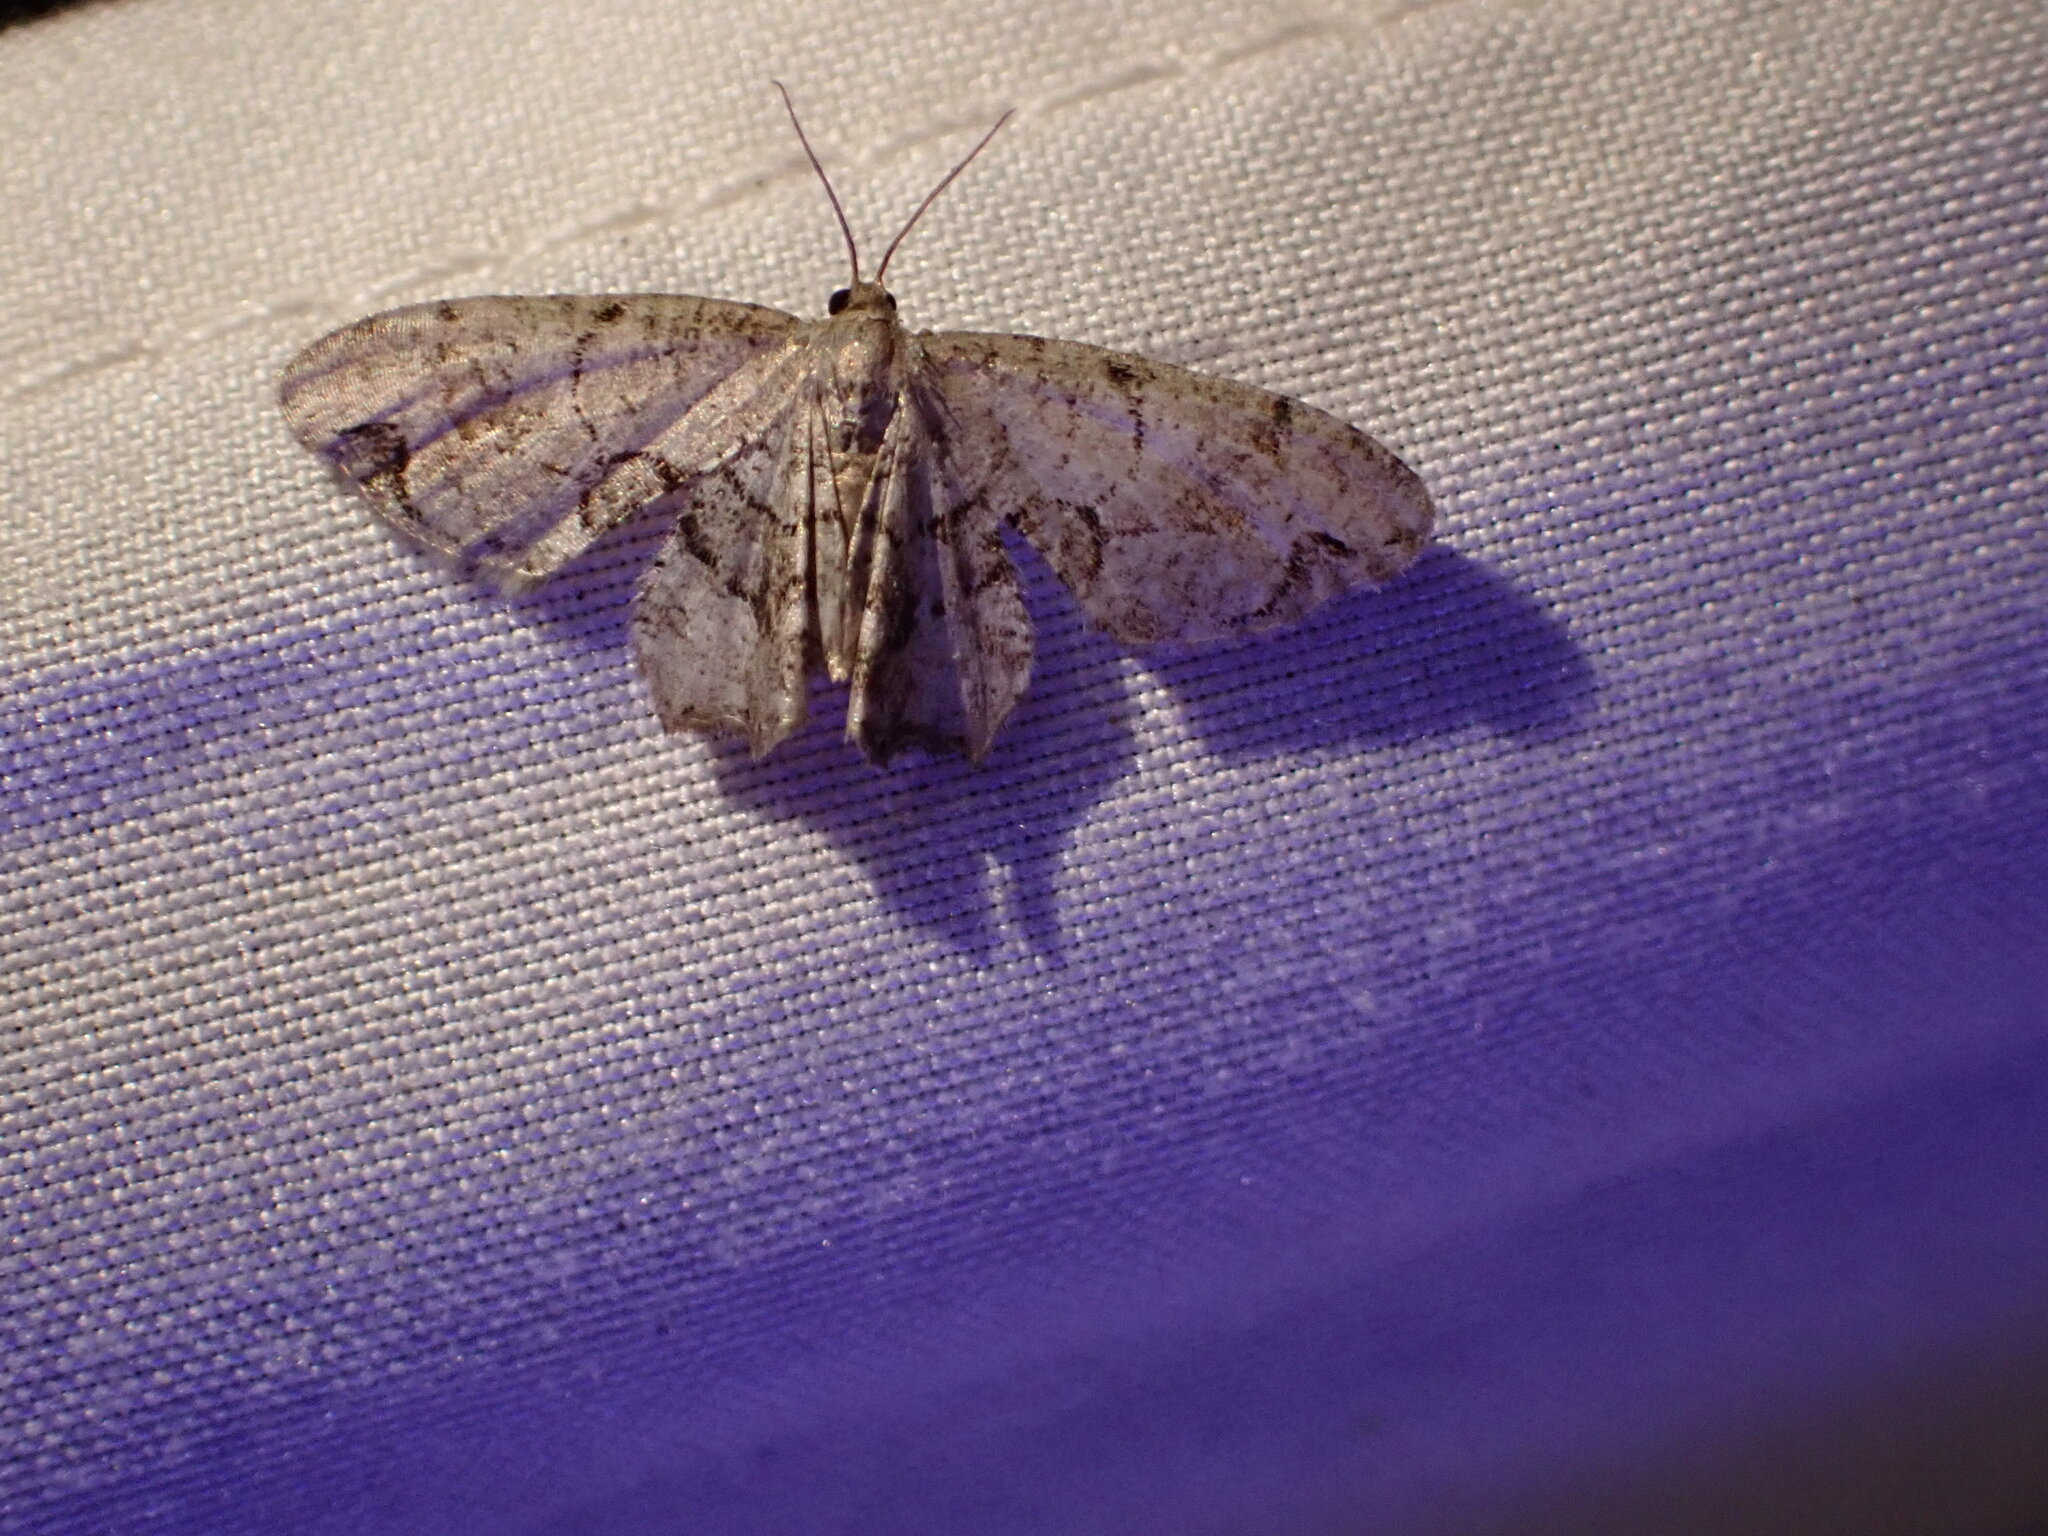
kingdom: Animalia
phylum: Arthropoda
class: Insecta
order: Lepidoptera
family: Uraniidae
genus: Epiplema
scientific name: Epiplema Callizzia amorata
